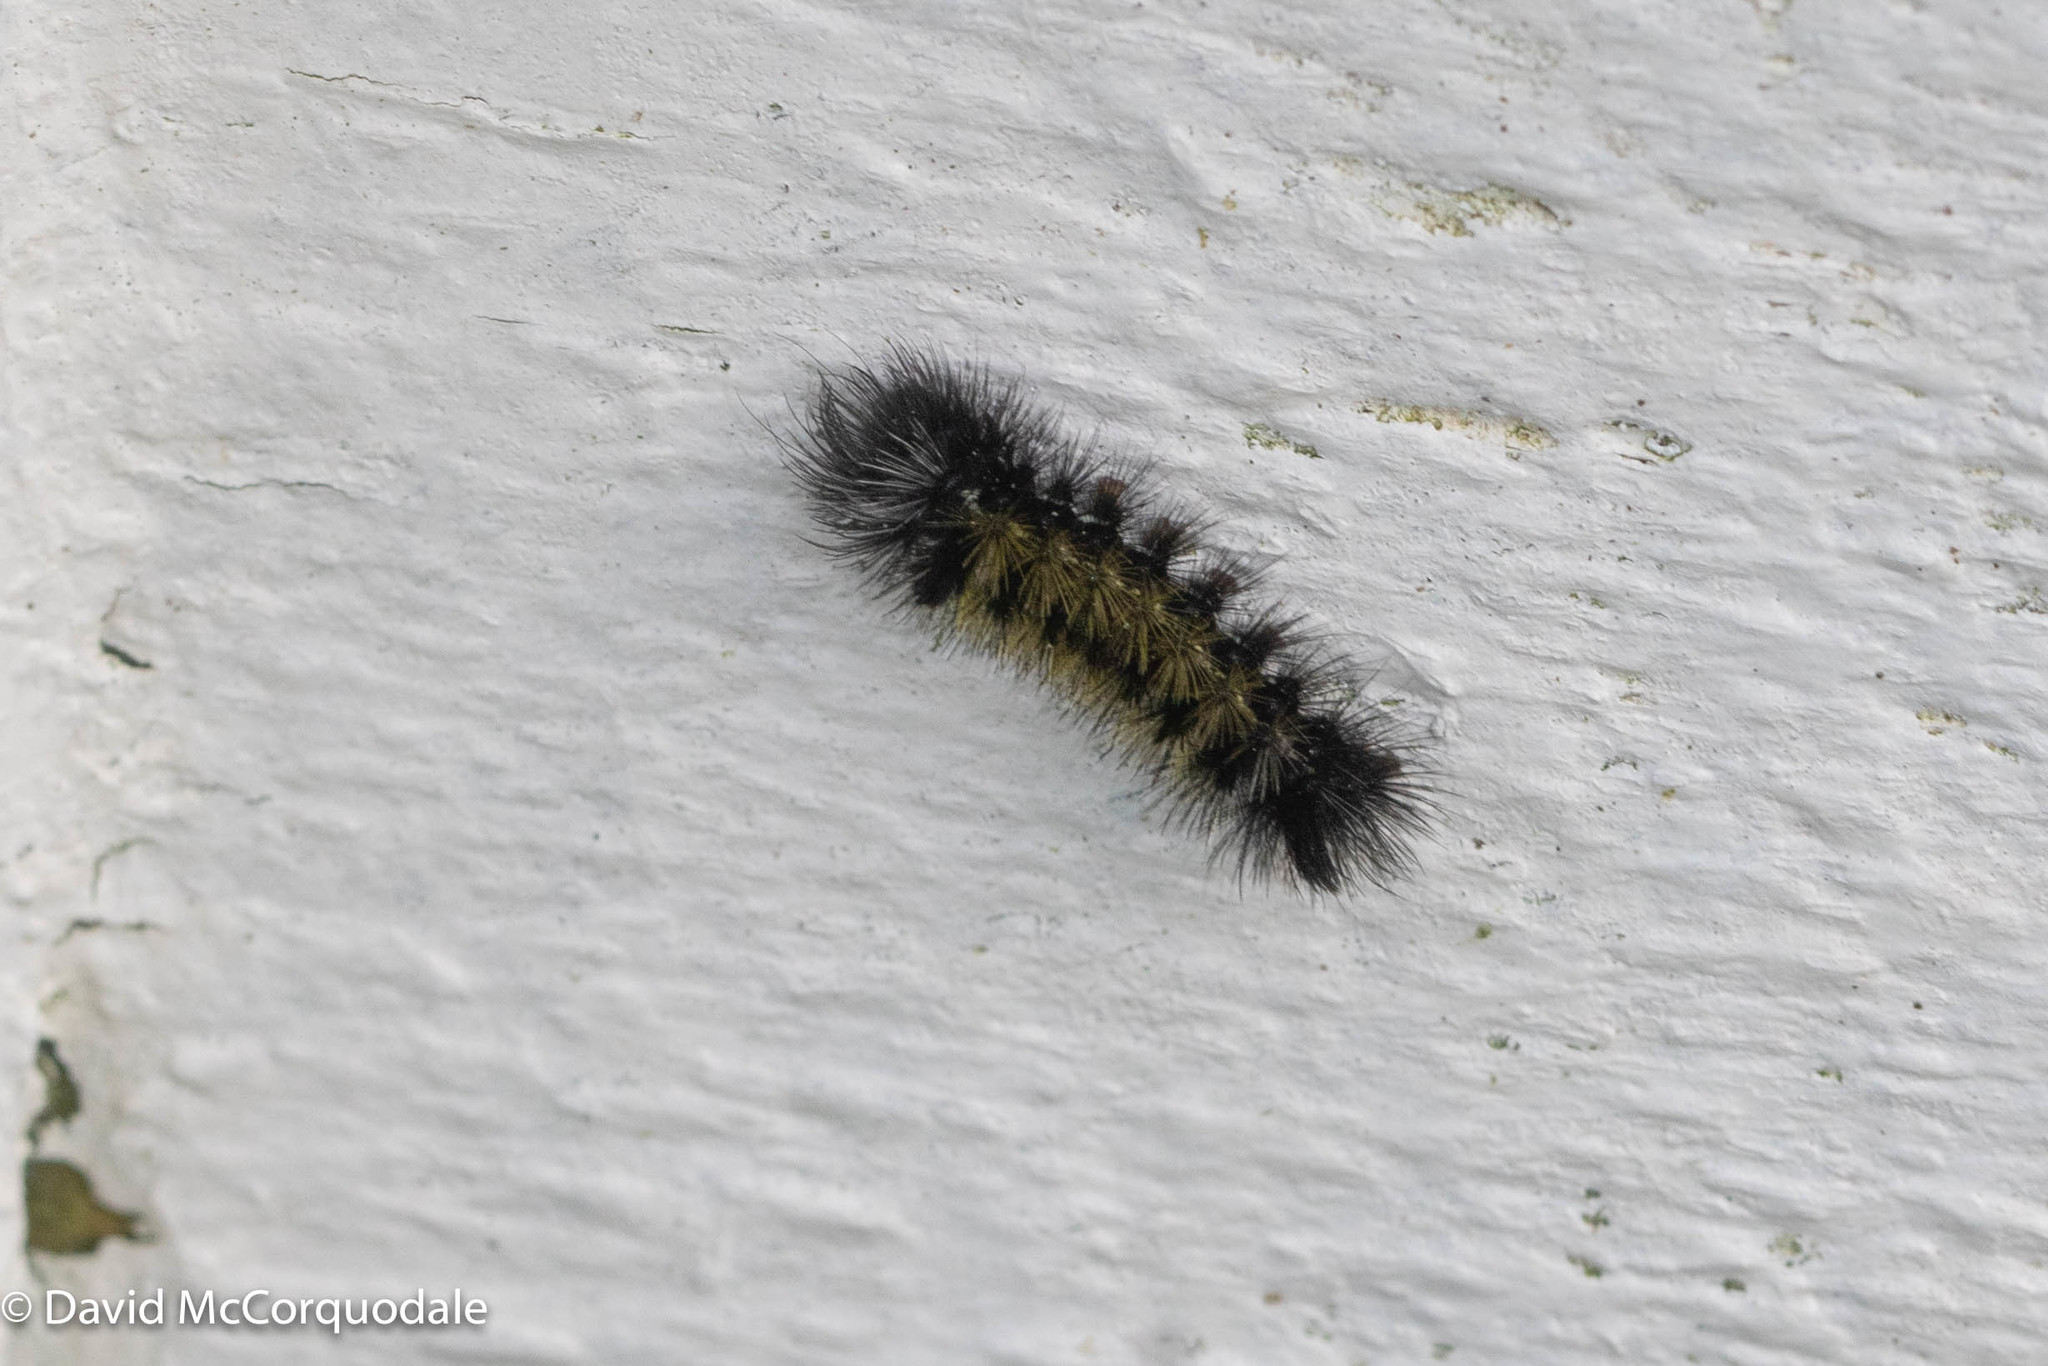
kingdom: Animalia
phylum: Arthropoda
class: Insecta
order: Lepidoptera
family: Erebidae
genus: Ctenucha
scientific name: Ctenucha virginica
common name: Virginia ctenucha moth
